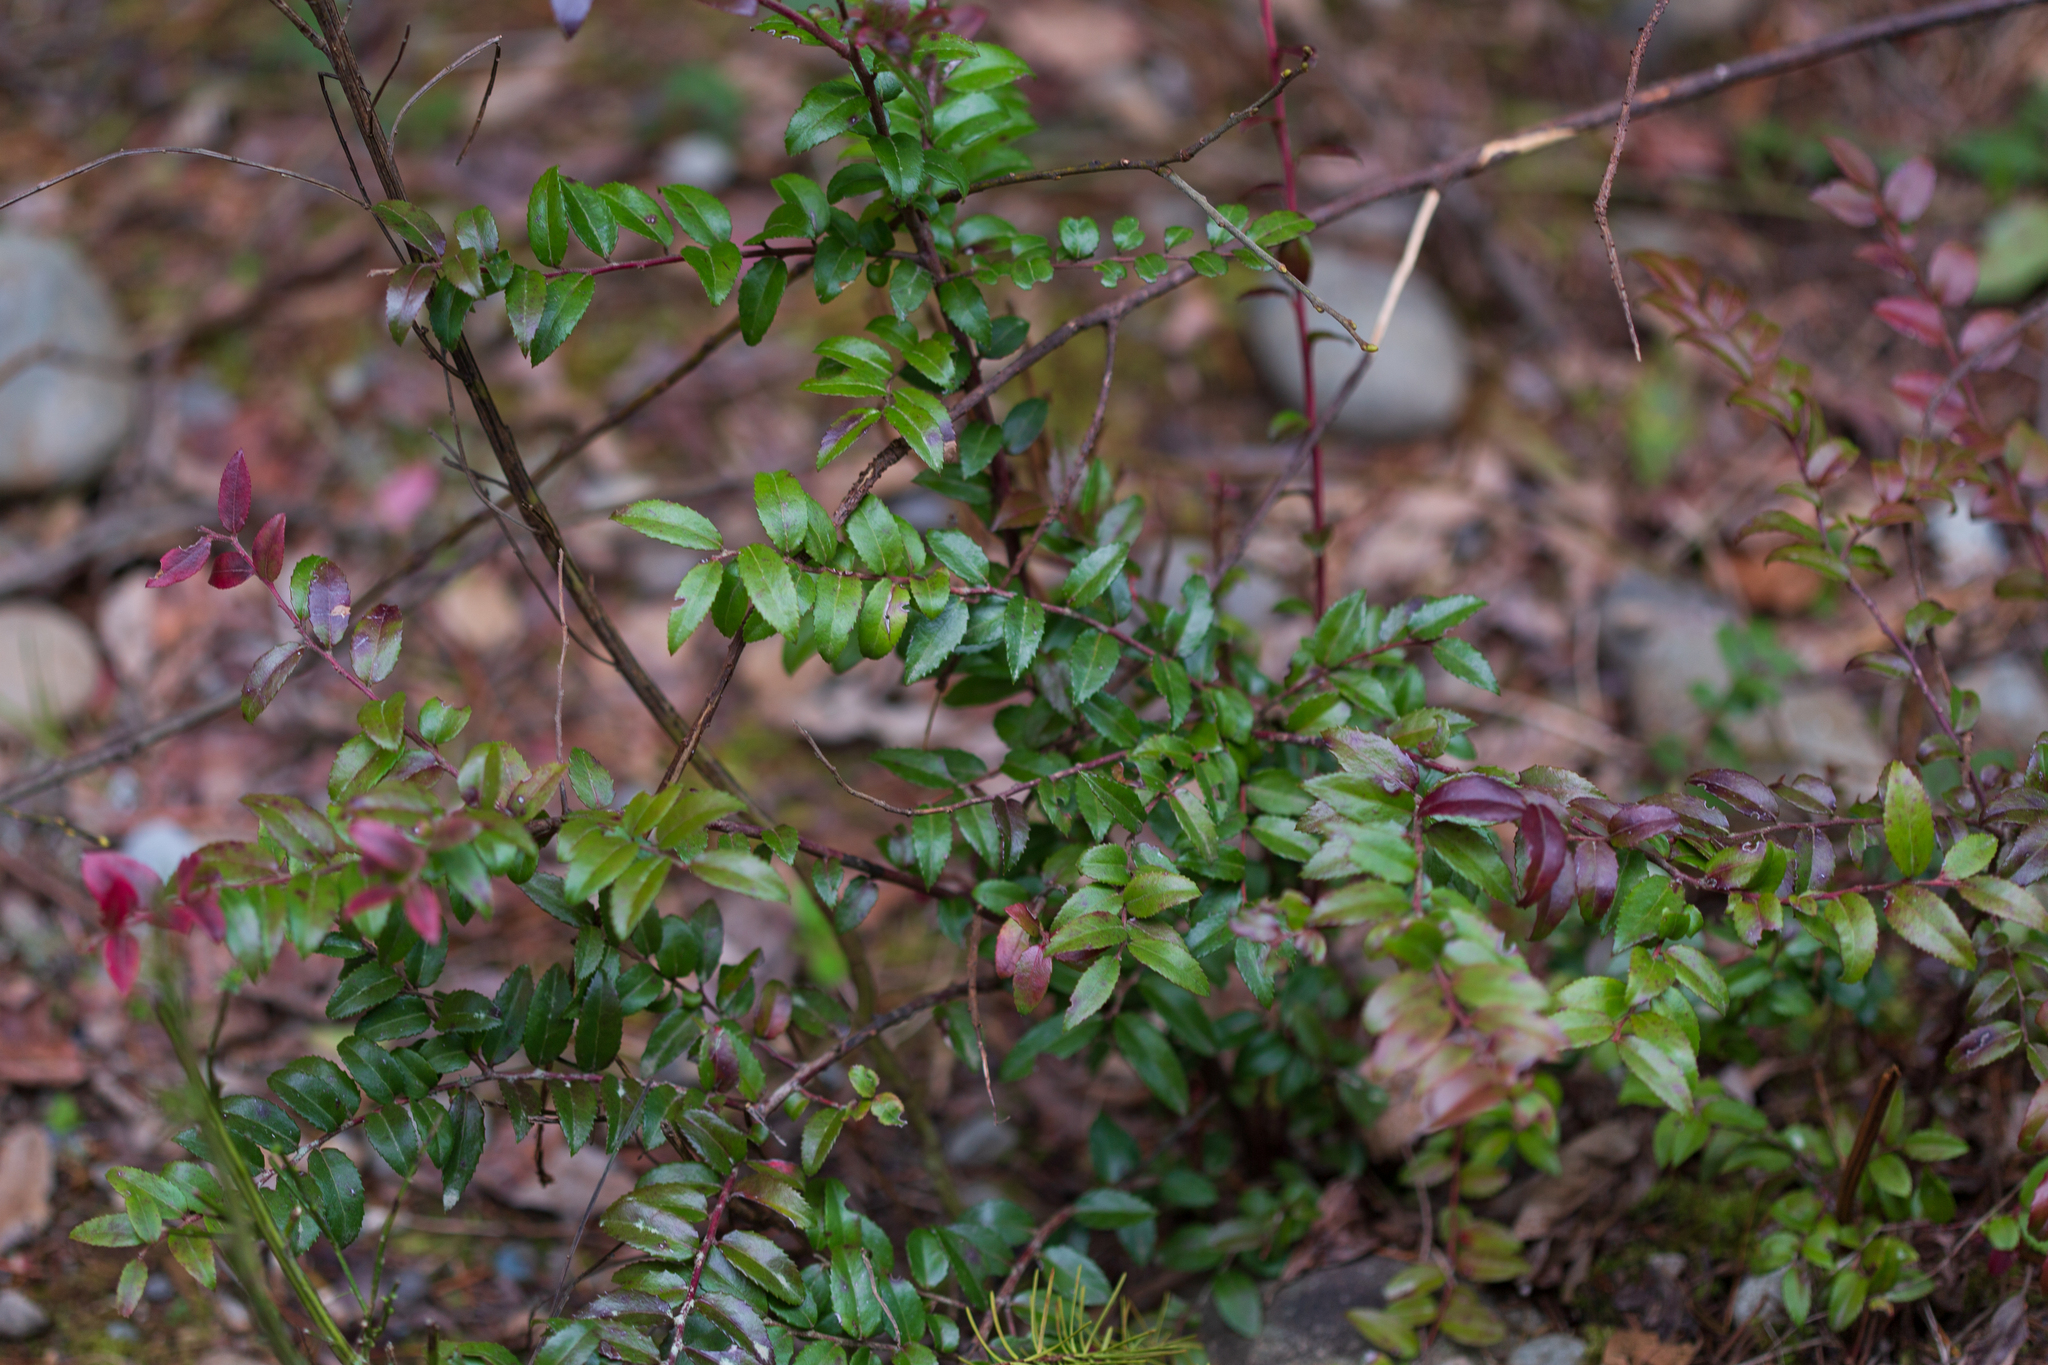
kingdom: Plantae
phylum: Tracheophyta
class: Magnoliopsida
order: Ericales
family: Ericaceae
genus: Vaccinium
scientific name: Vaccinium ovatum
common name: California-huckleberry
